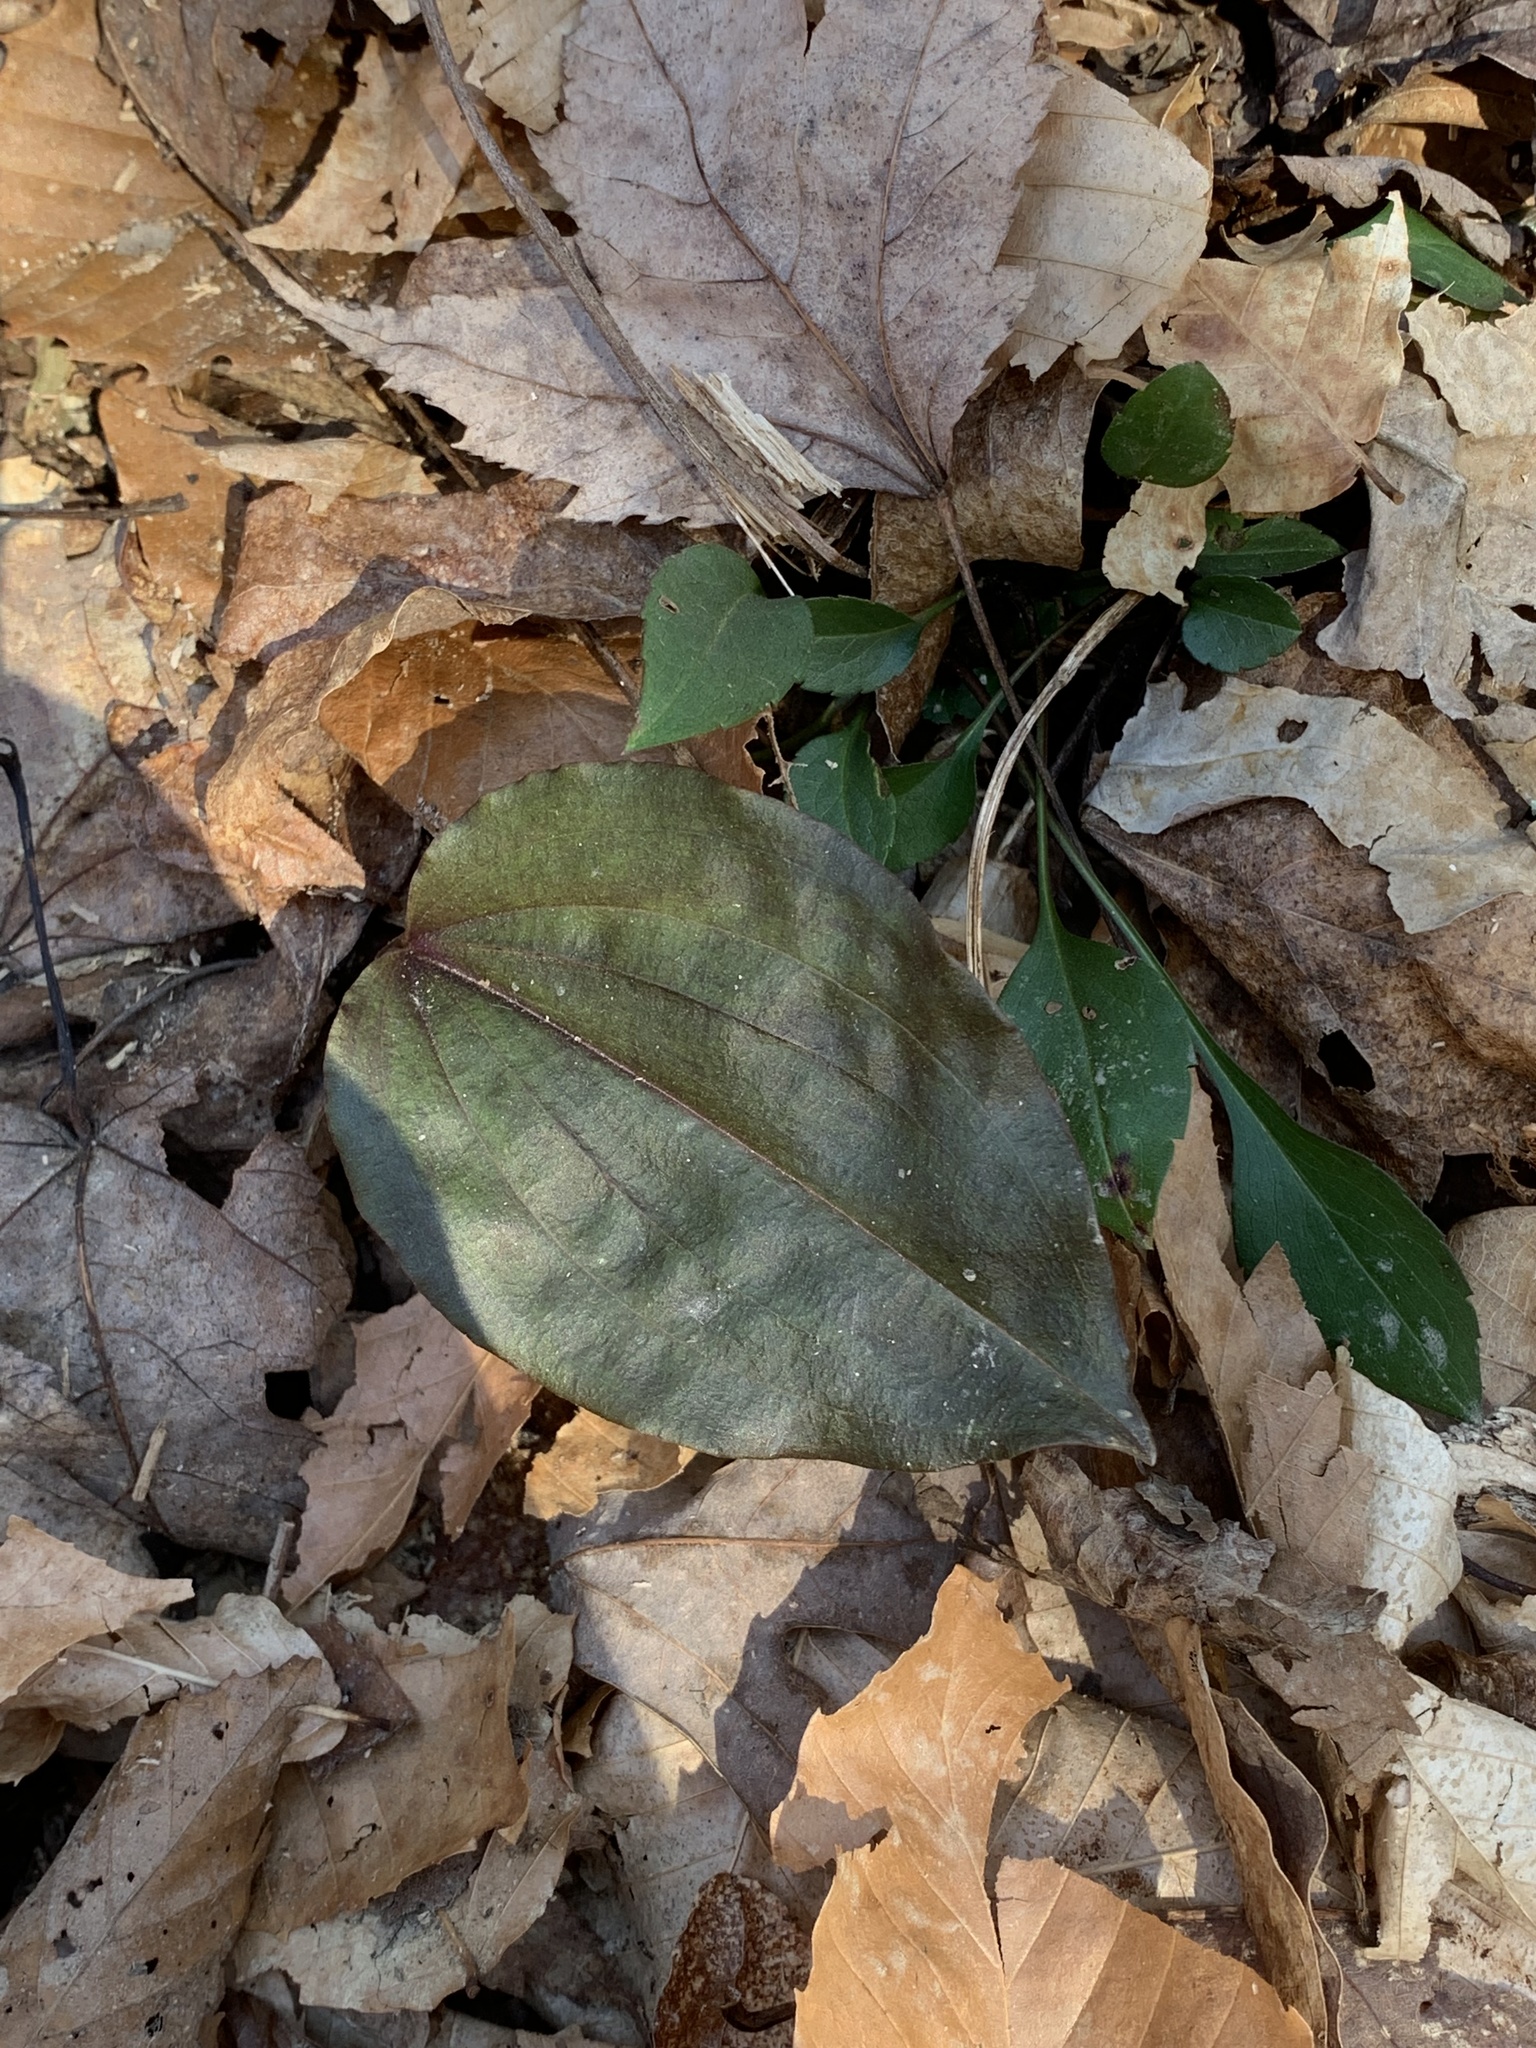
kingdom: Plantae
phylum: Tracheophyta
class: Liliopsida
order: Asparagales
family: Orchidaceae
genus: Tipularia
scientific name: Tipularia discolor
